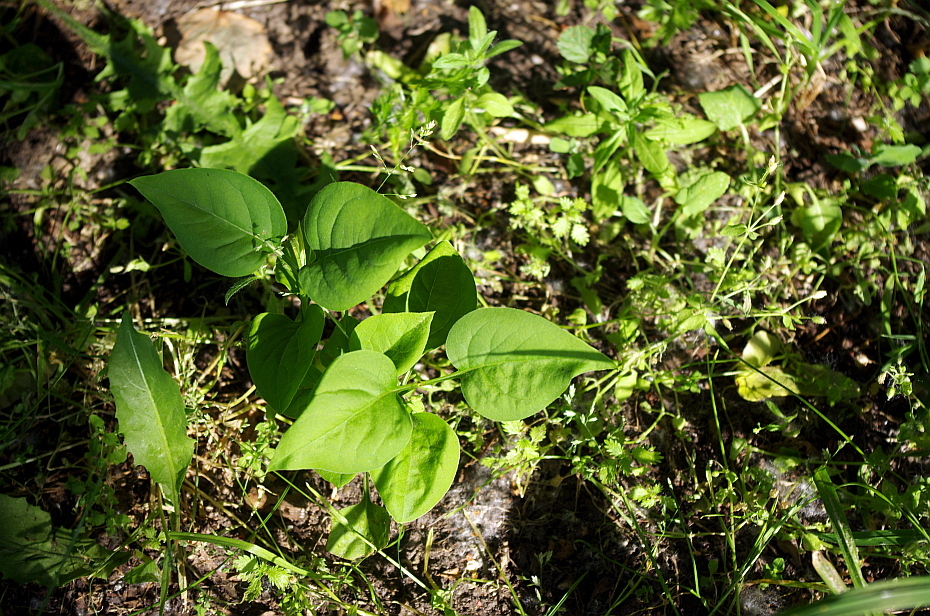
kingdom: Plantae
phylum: Tracheophyta
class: Magnoliopsida
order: Lamiales
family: Oleaceae
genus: Syringa
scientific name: Syringa vulgaris
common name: Common lilac
